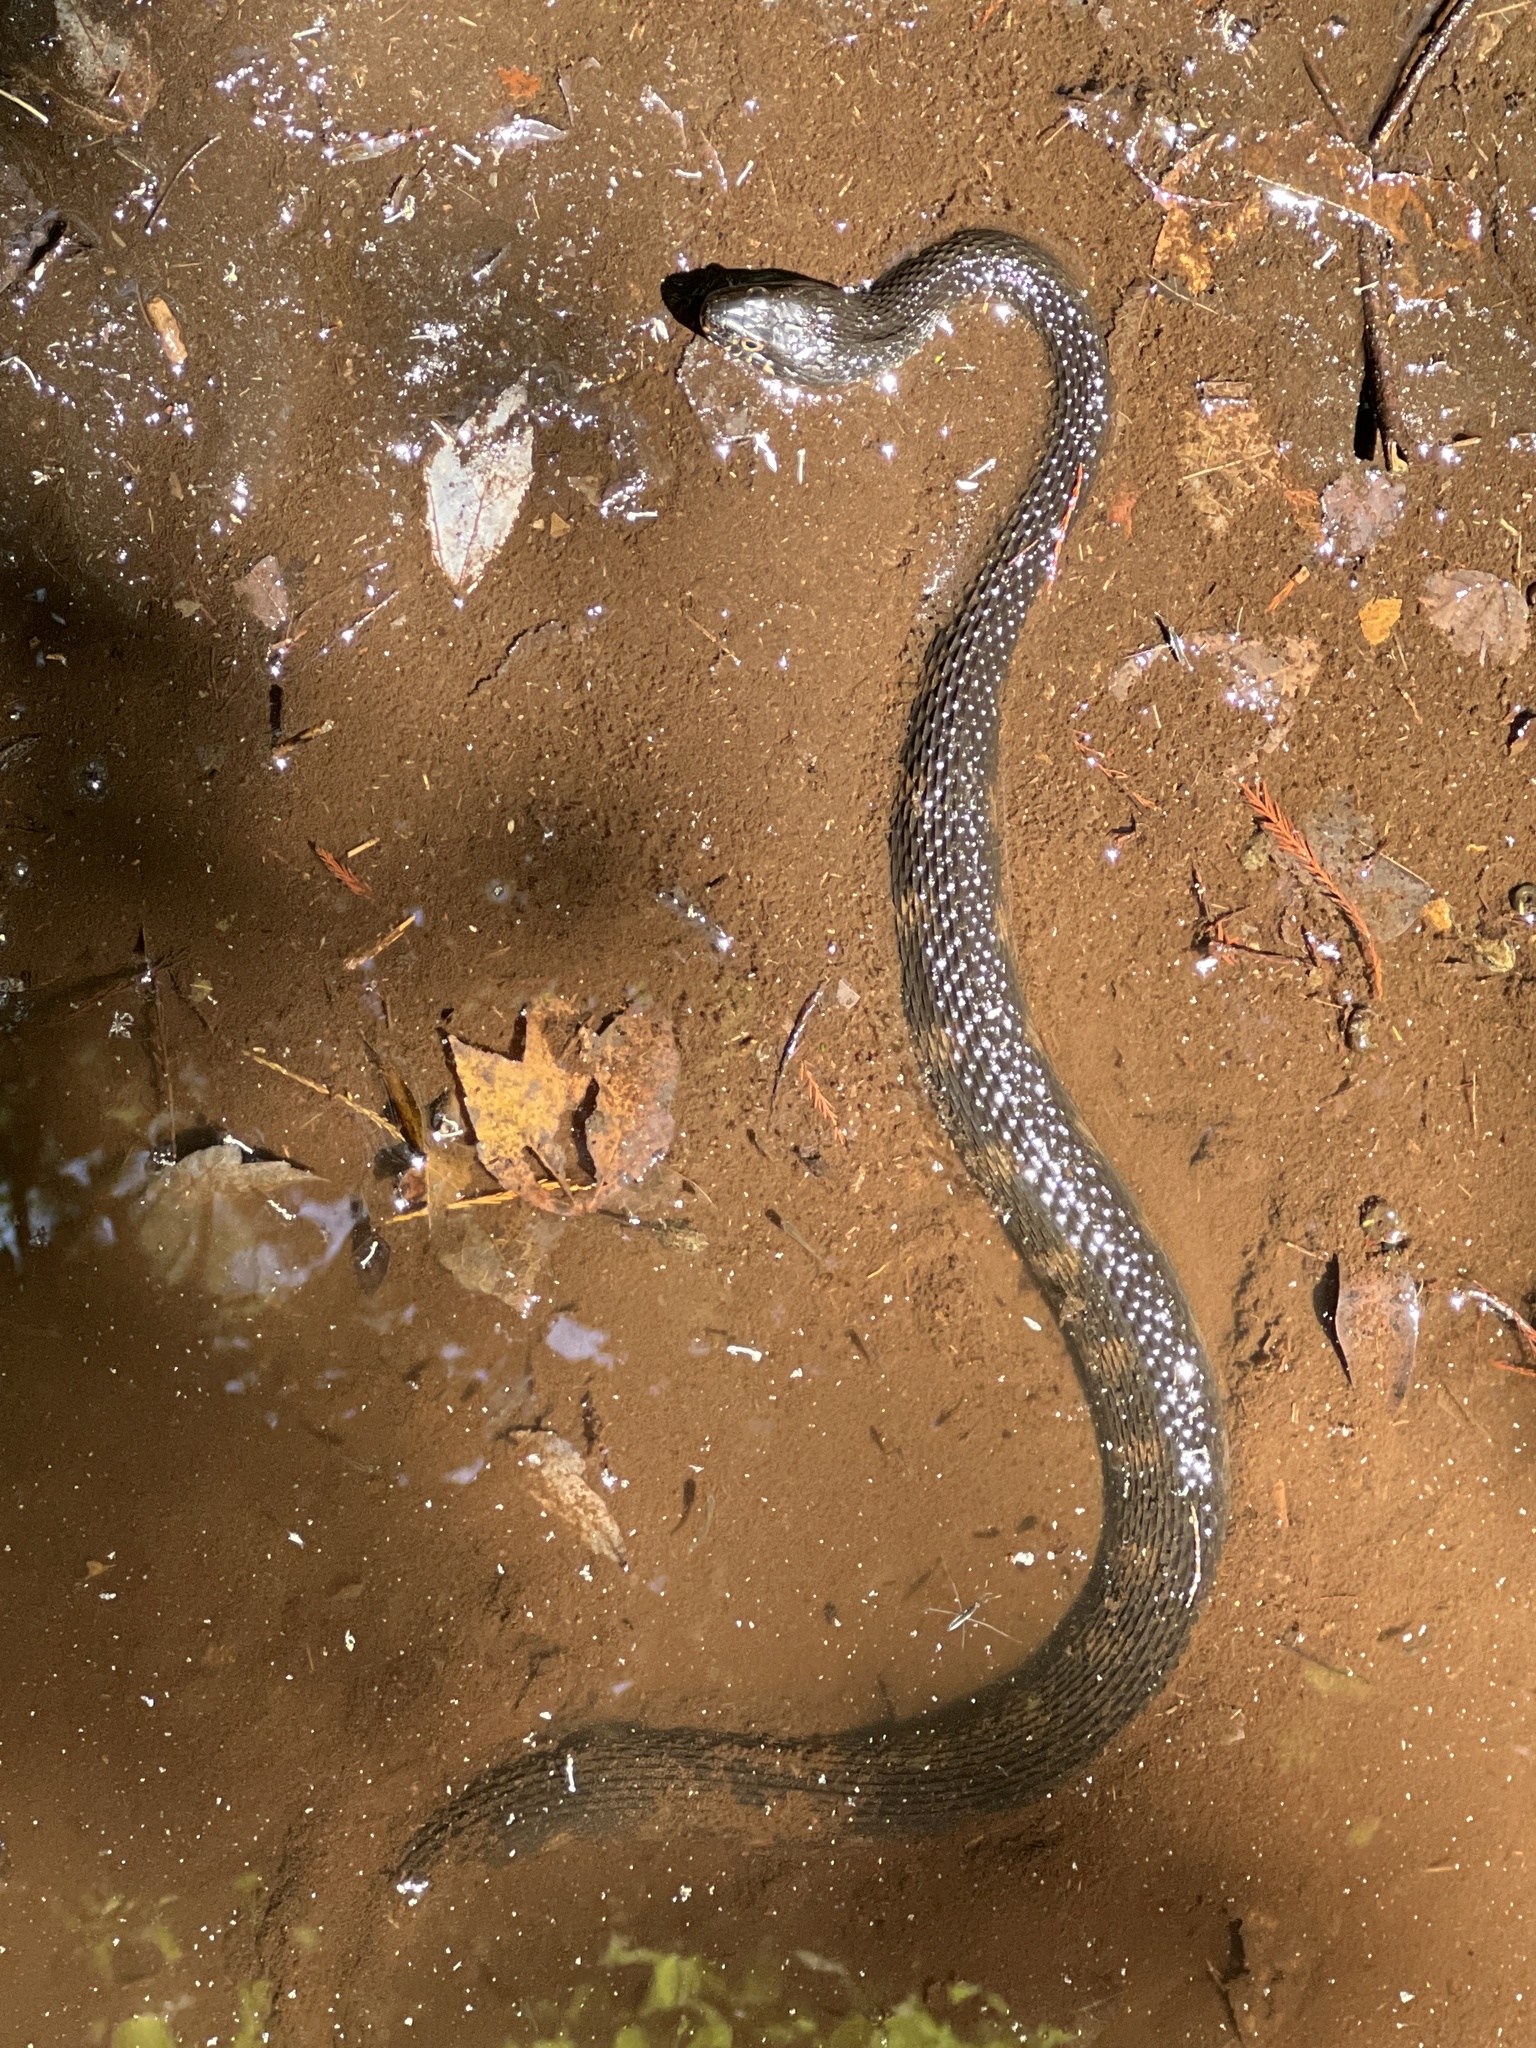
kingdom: Animalia
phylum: Chordata
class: Squamata
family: Colubridae
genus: Nerodia
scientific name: Nerodia fasciata
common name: Southern water snake
